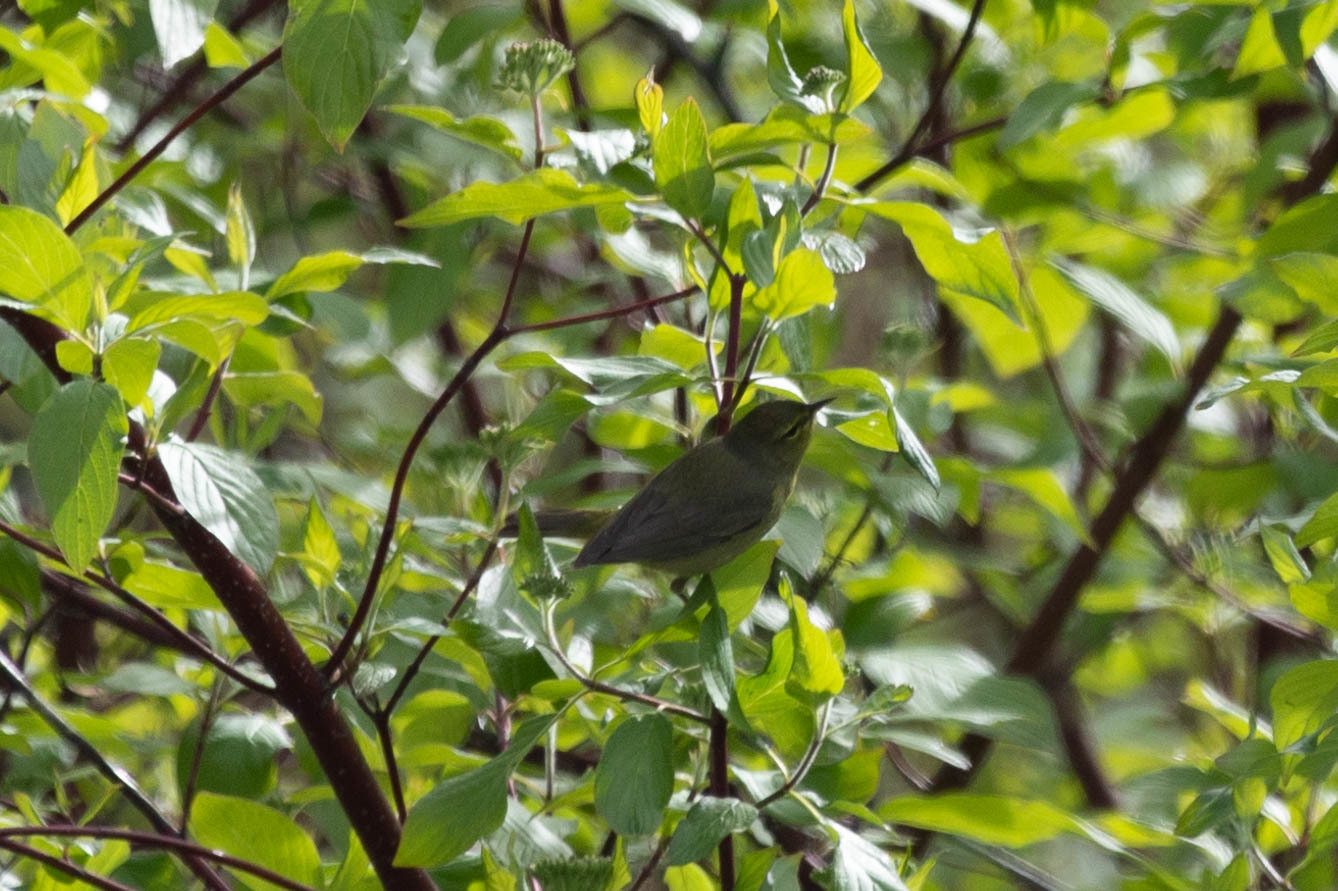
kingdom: Animalia
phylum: Chordata
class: Aves
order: Passeriformes
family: Parulidae
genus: Leiothlypis
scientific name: Leiothlypis celata
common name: Orange-crowned warbler
